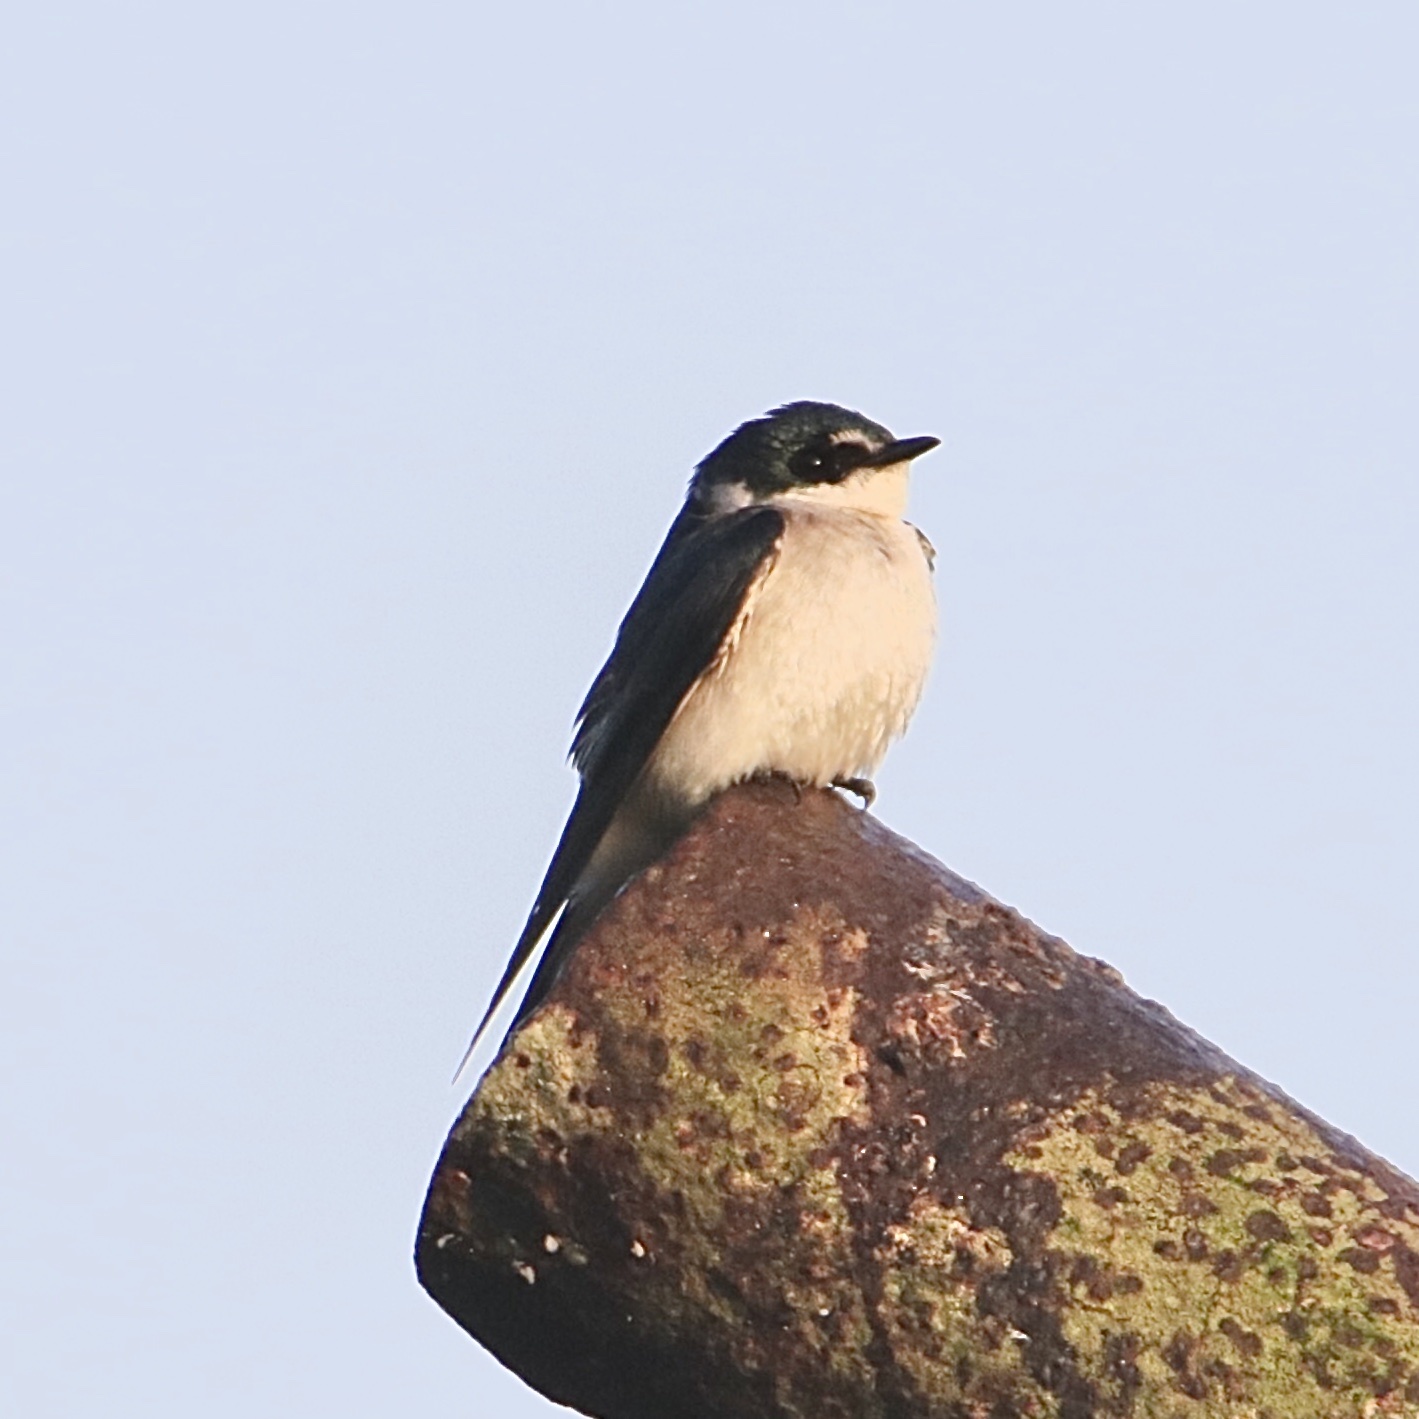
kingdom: Animalia
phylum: Chordata
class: Aves
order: Passeriformes
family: Hirundinidae
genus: Tachycineta
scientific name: Tachycineta albilinea
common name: Mangrove swallow
